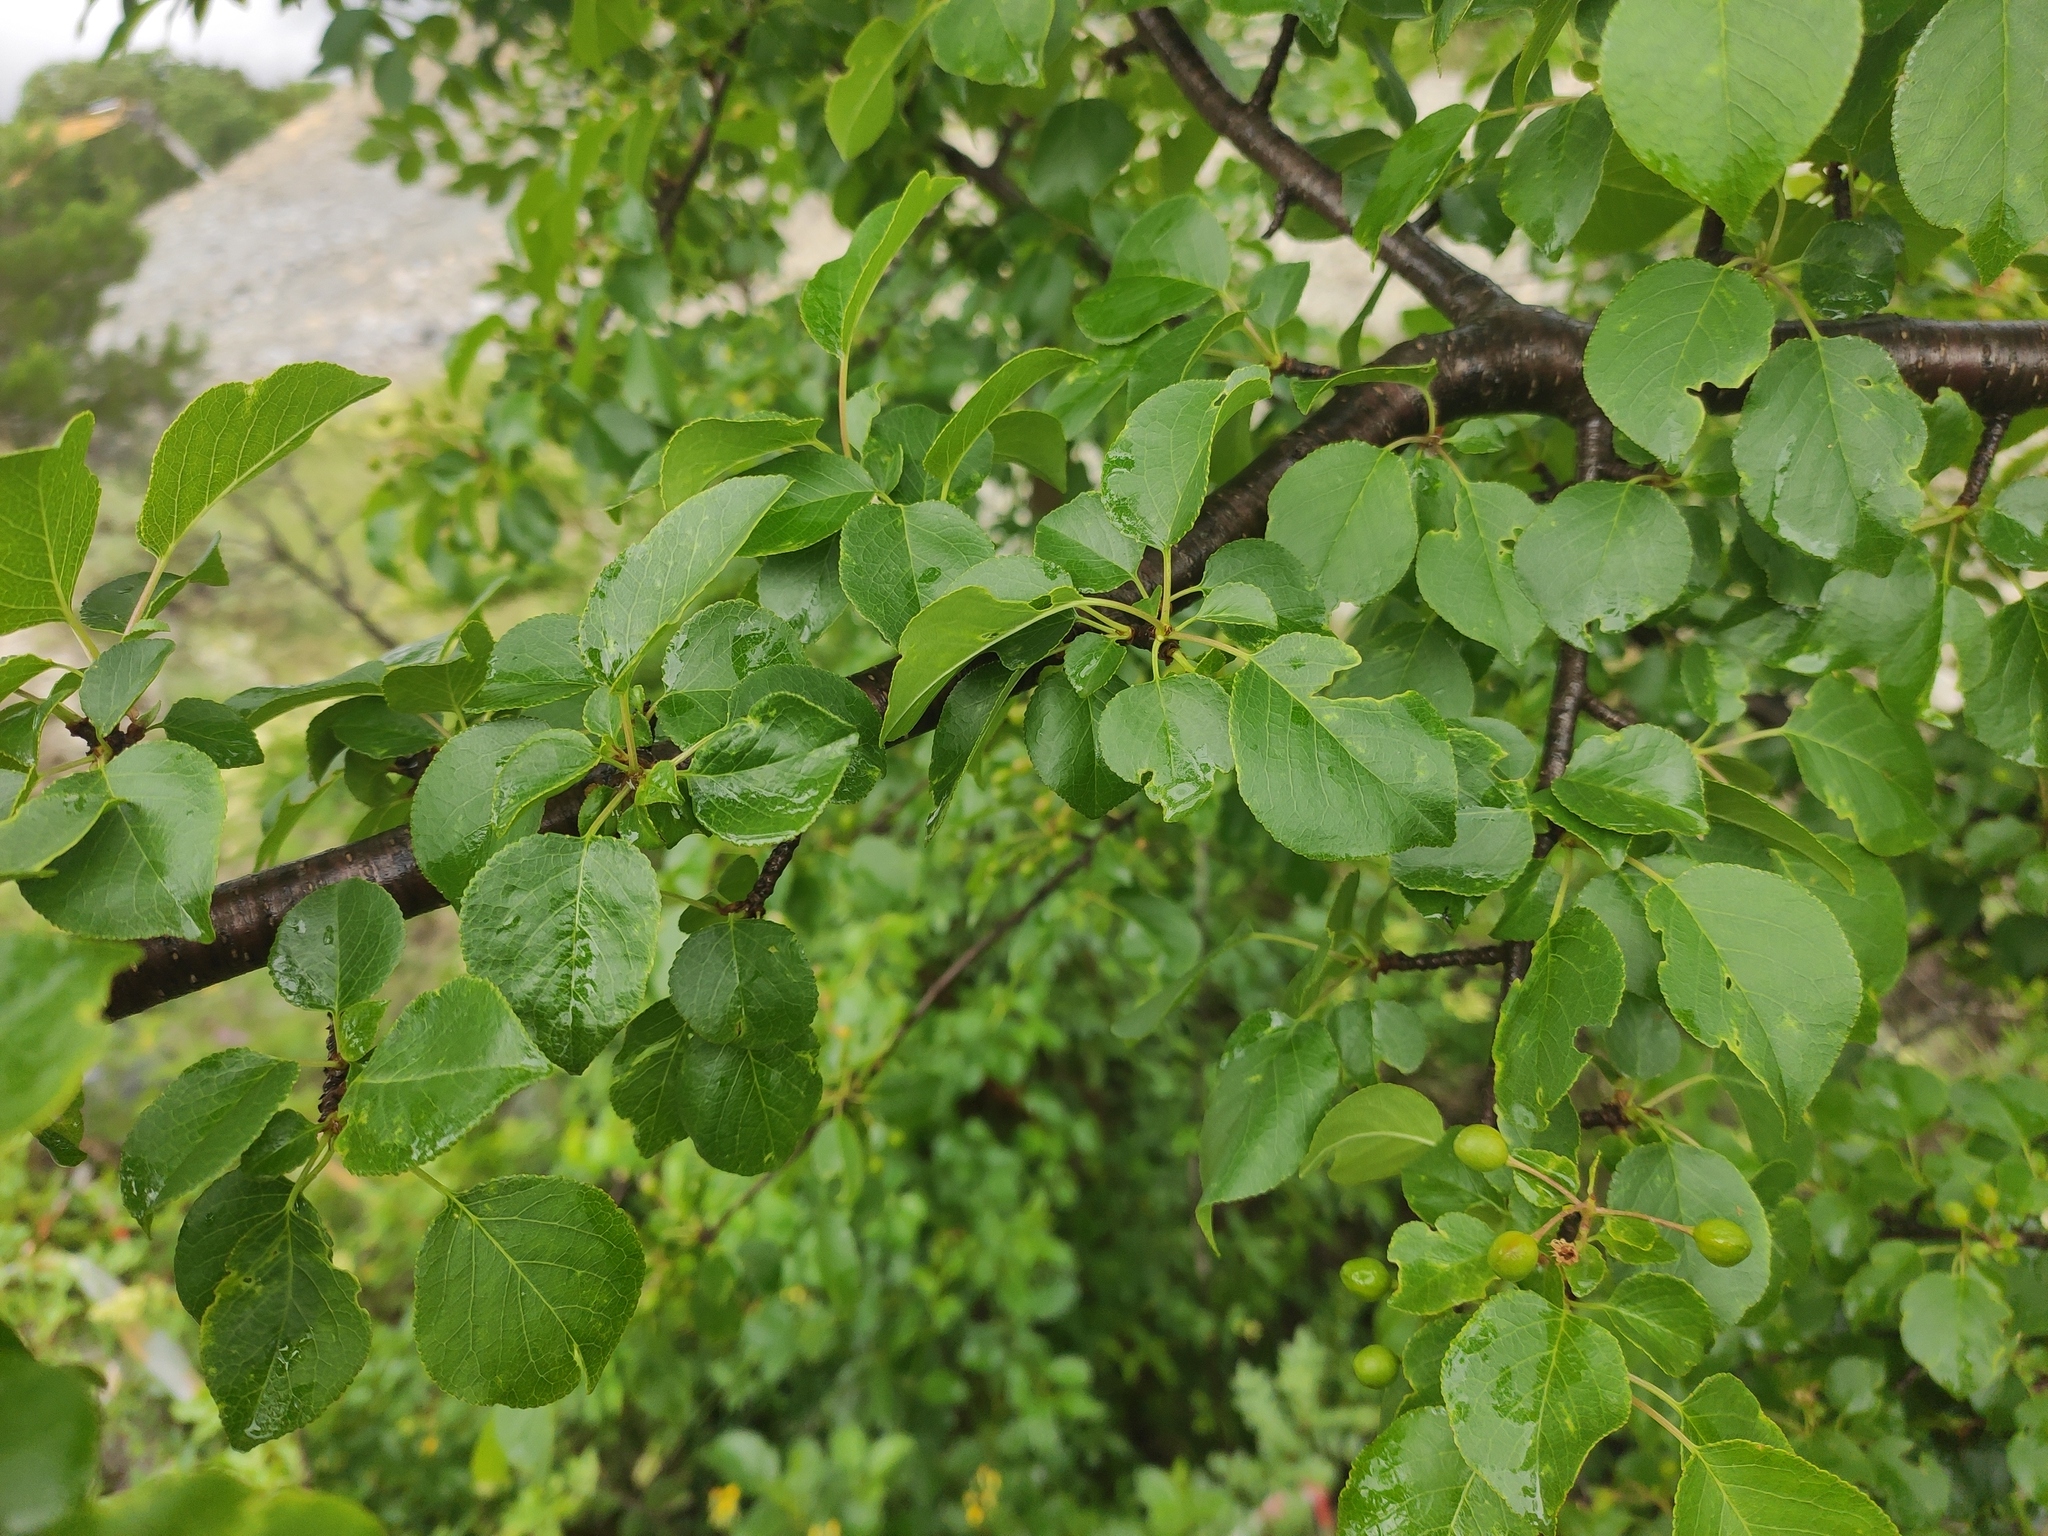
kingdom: Plantae
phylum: Tracheophyta
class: Magnoliopsida
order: Rosales
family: Rosaceae
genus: Prunus
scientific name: Prunus mahaleb
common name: Mahaleb cherry
